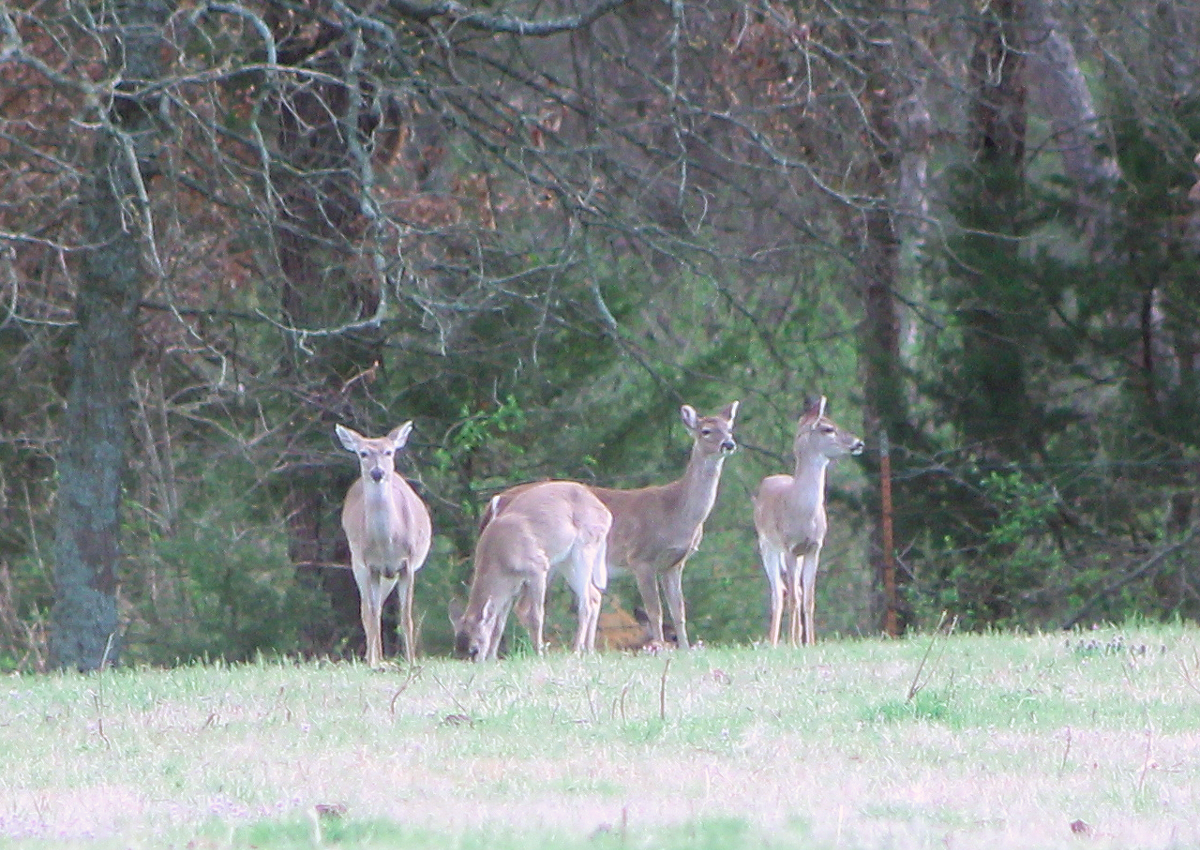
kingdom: Animalia
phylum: Chordata
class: Mammalia
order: Artiodactyla
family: Cervidae
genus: Odocoileus
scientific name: Odocoileus virginianus
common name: White-tailed deer
